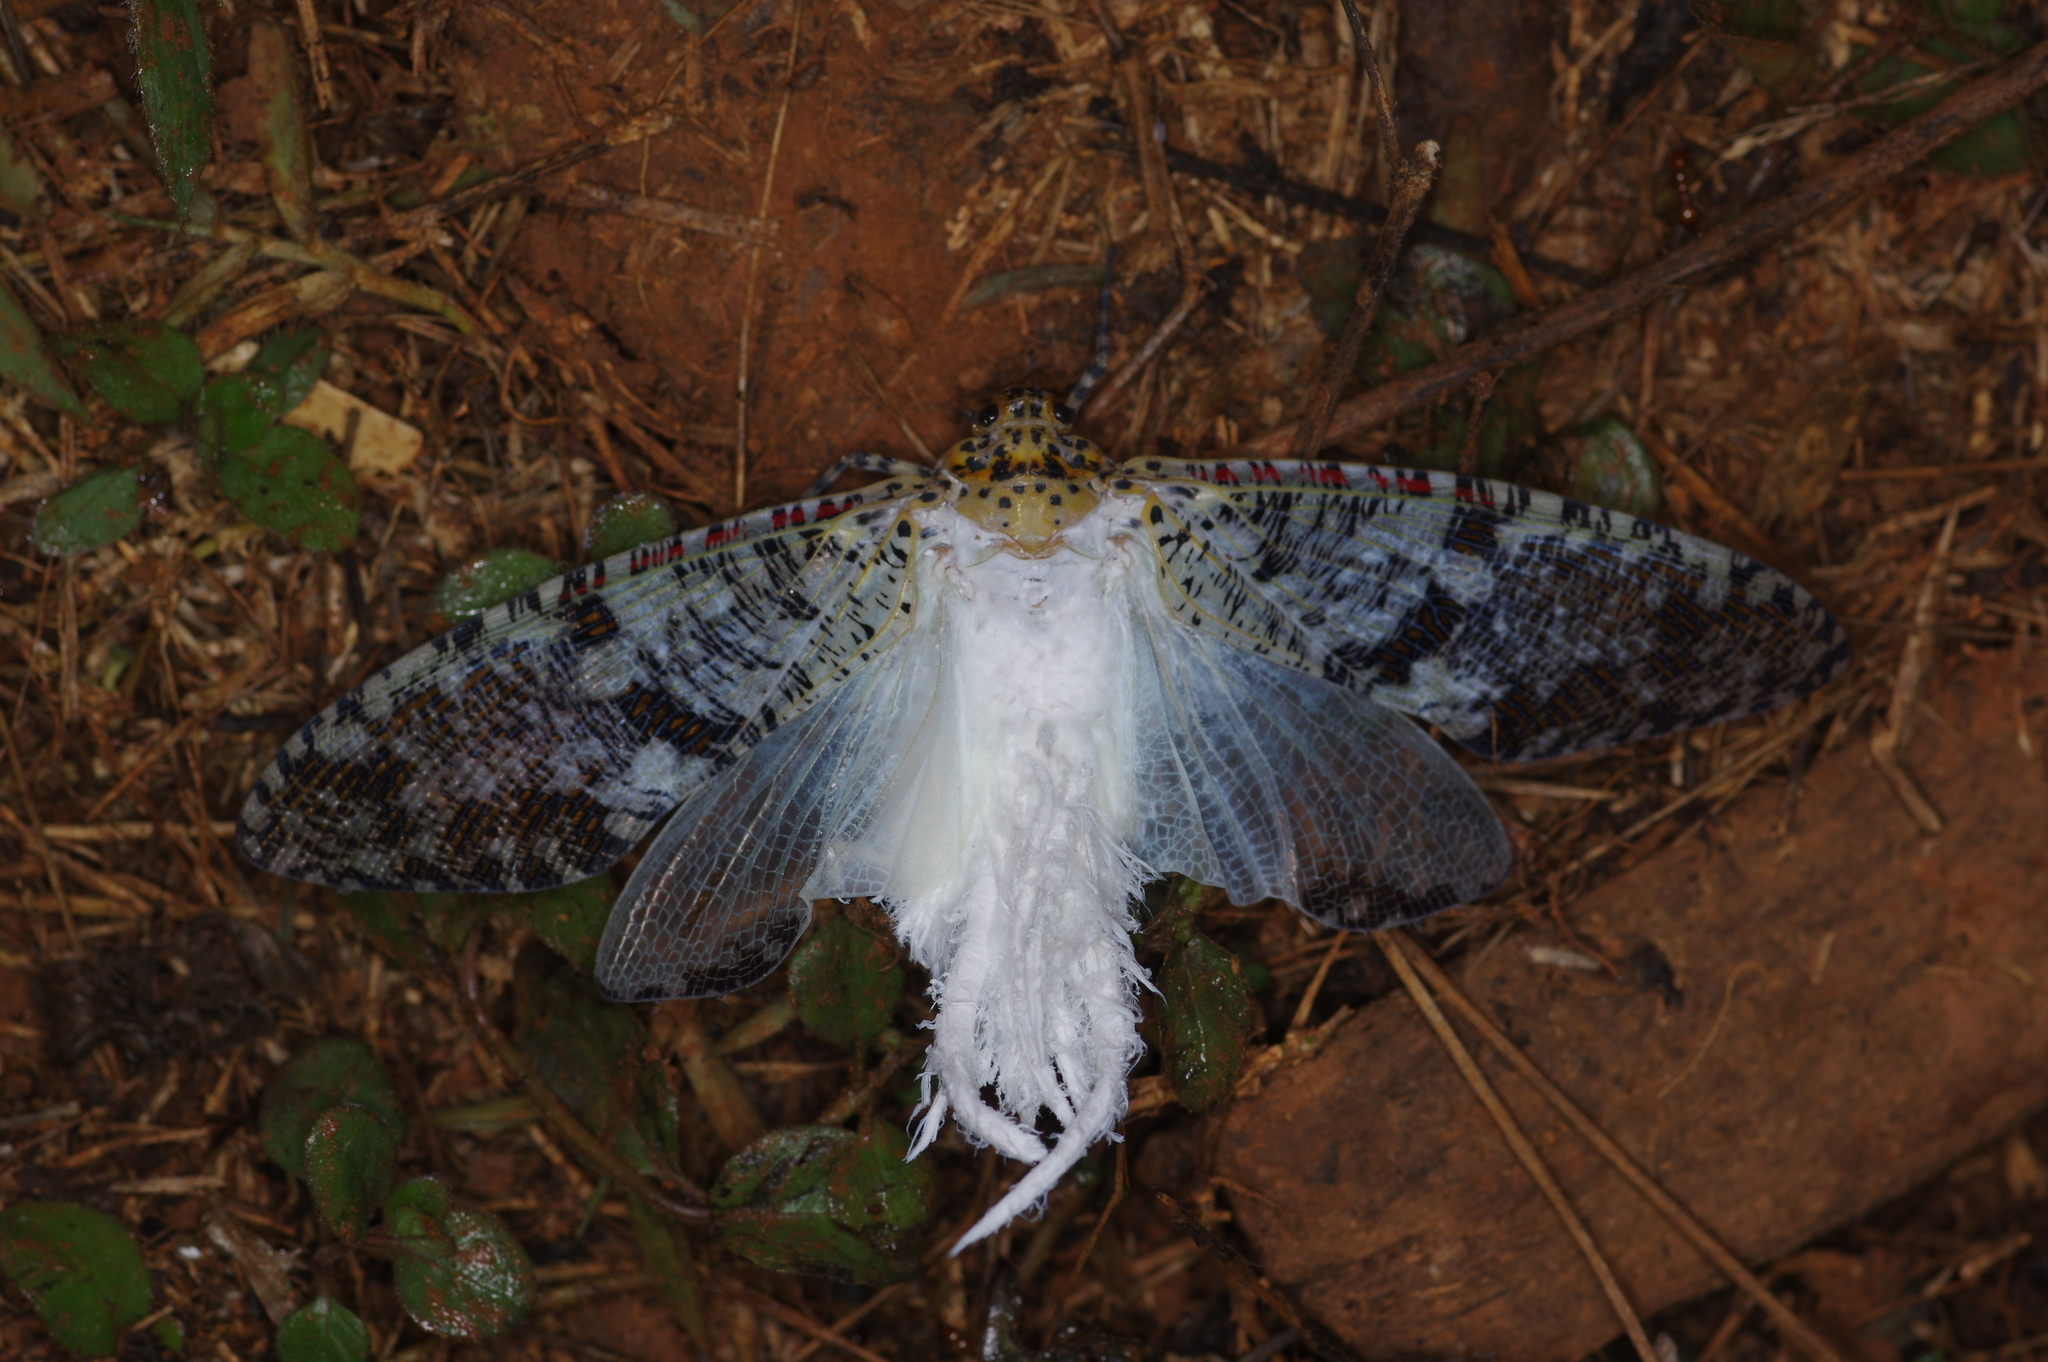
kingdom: Animalia
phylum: Arthropoda
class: Insecta
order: Hemiptera
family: Fulgoridae
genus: Phenax
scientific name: Phenax variegata
